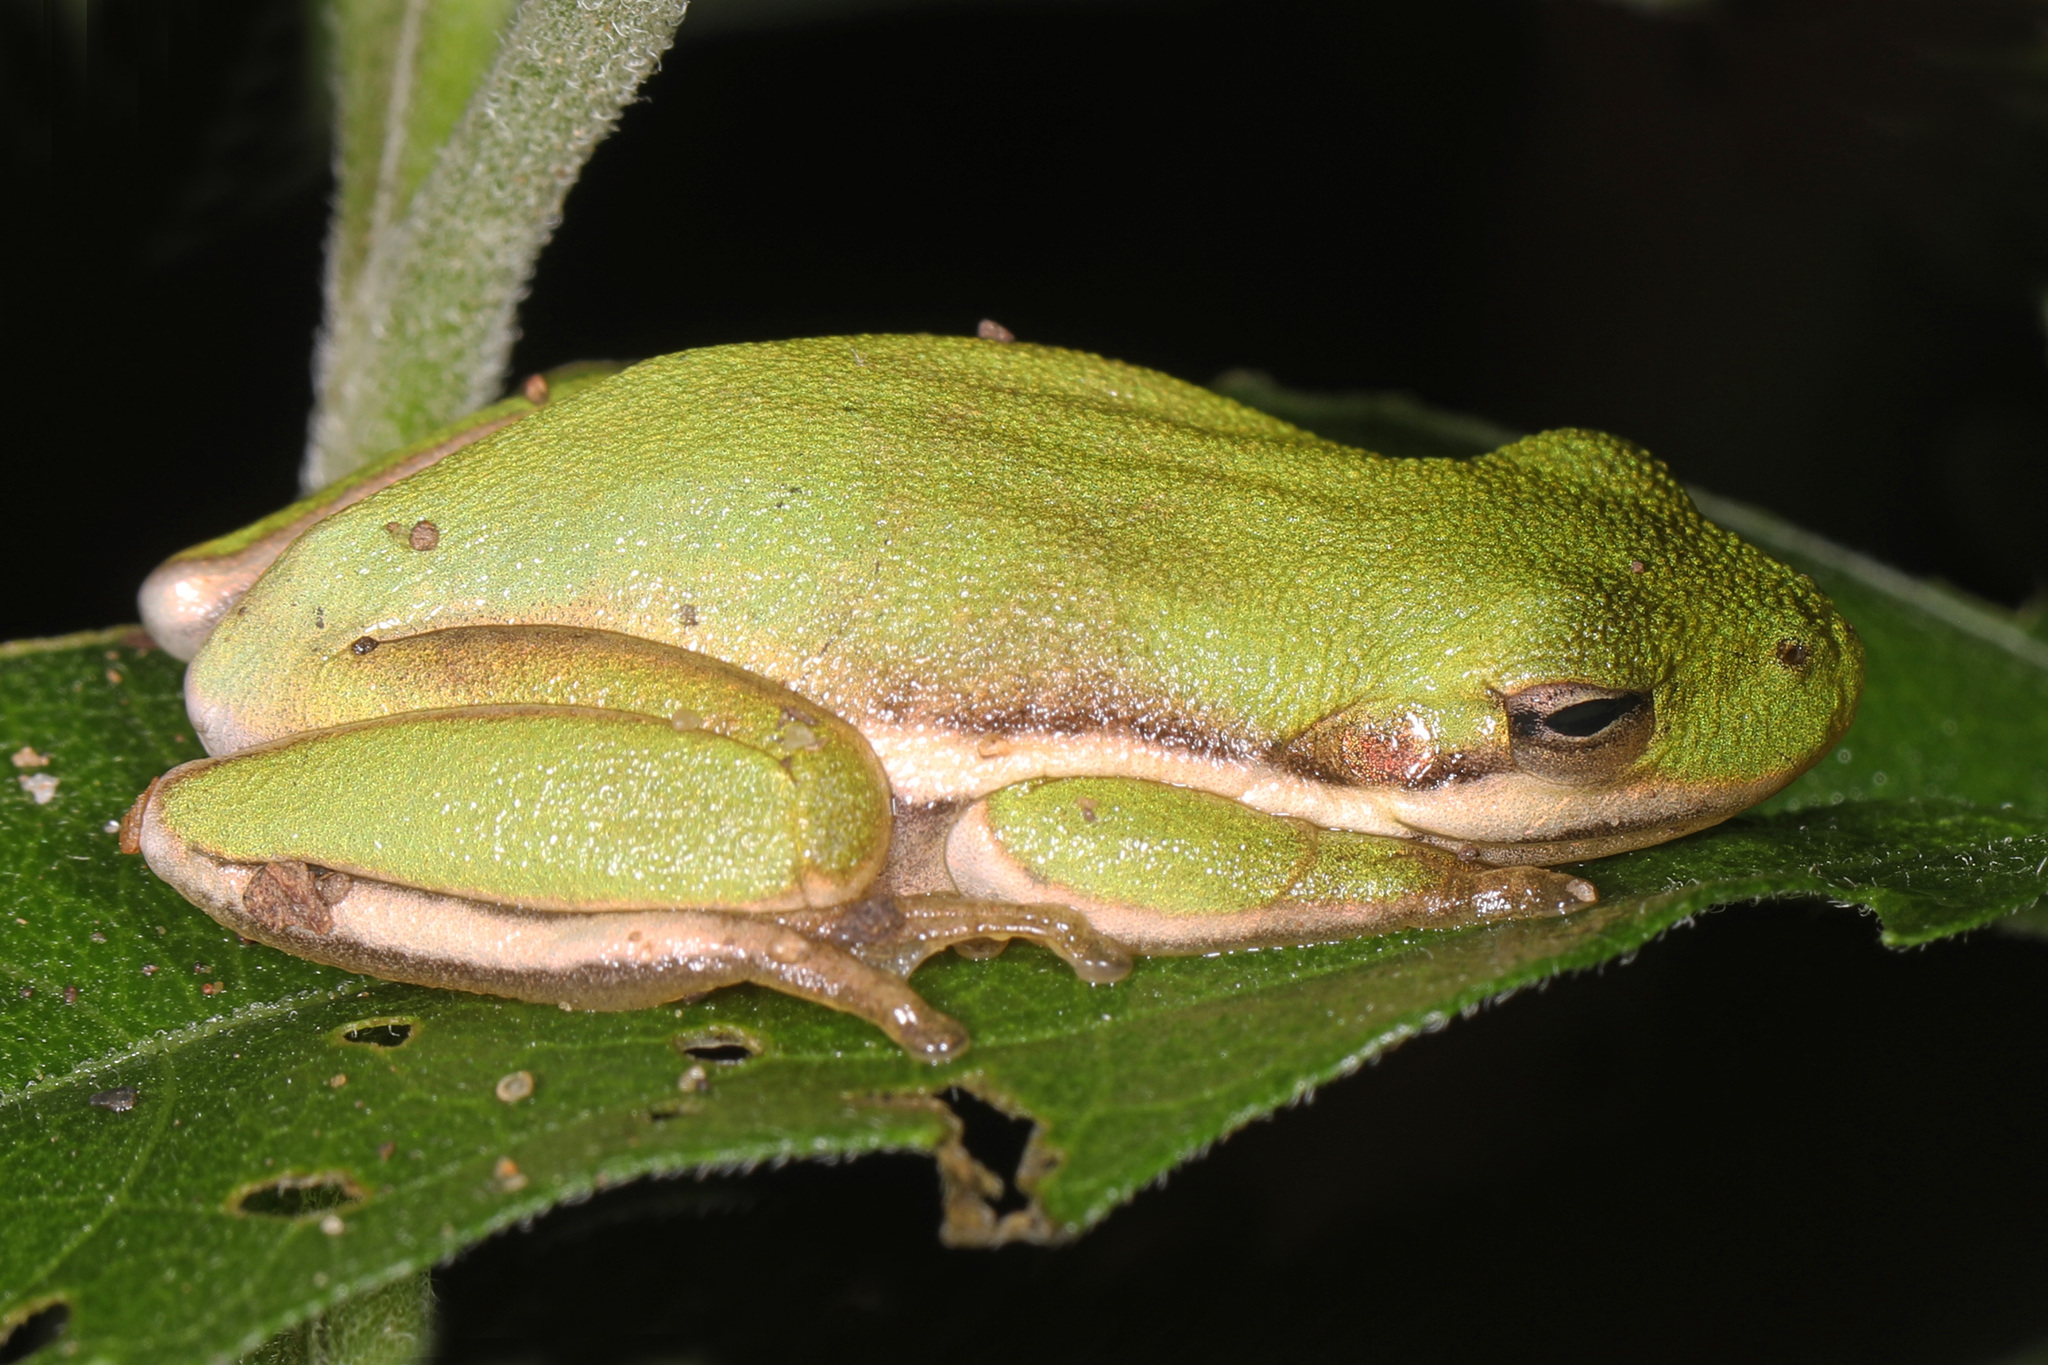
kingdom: Animalia
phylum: Chordata
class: Amphibia
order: Anura
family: Hylidae
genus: Dryophytes
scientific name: Dryophytes cinereus
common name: Green treefrog
